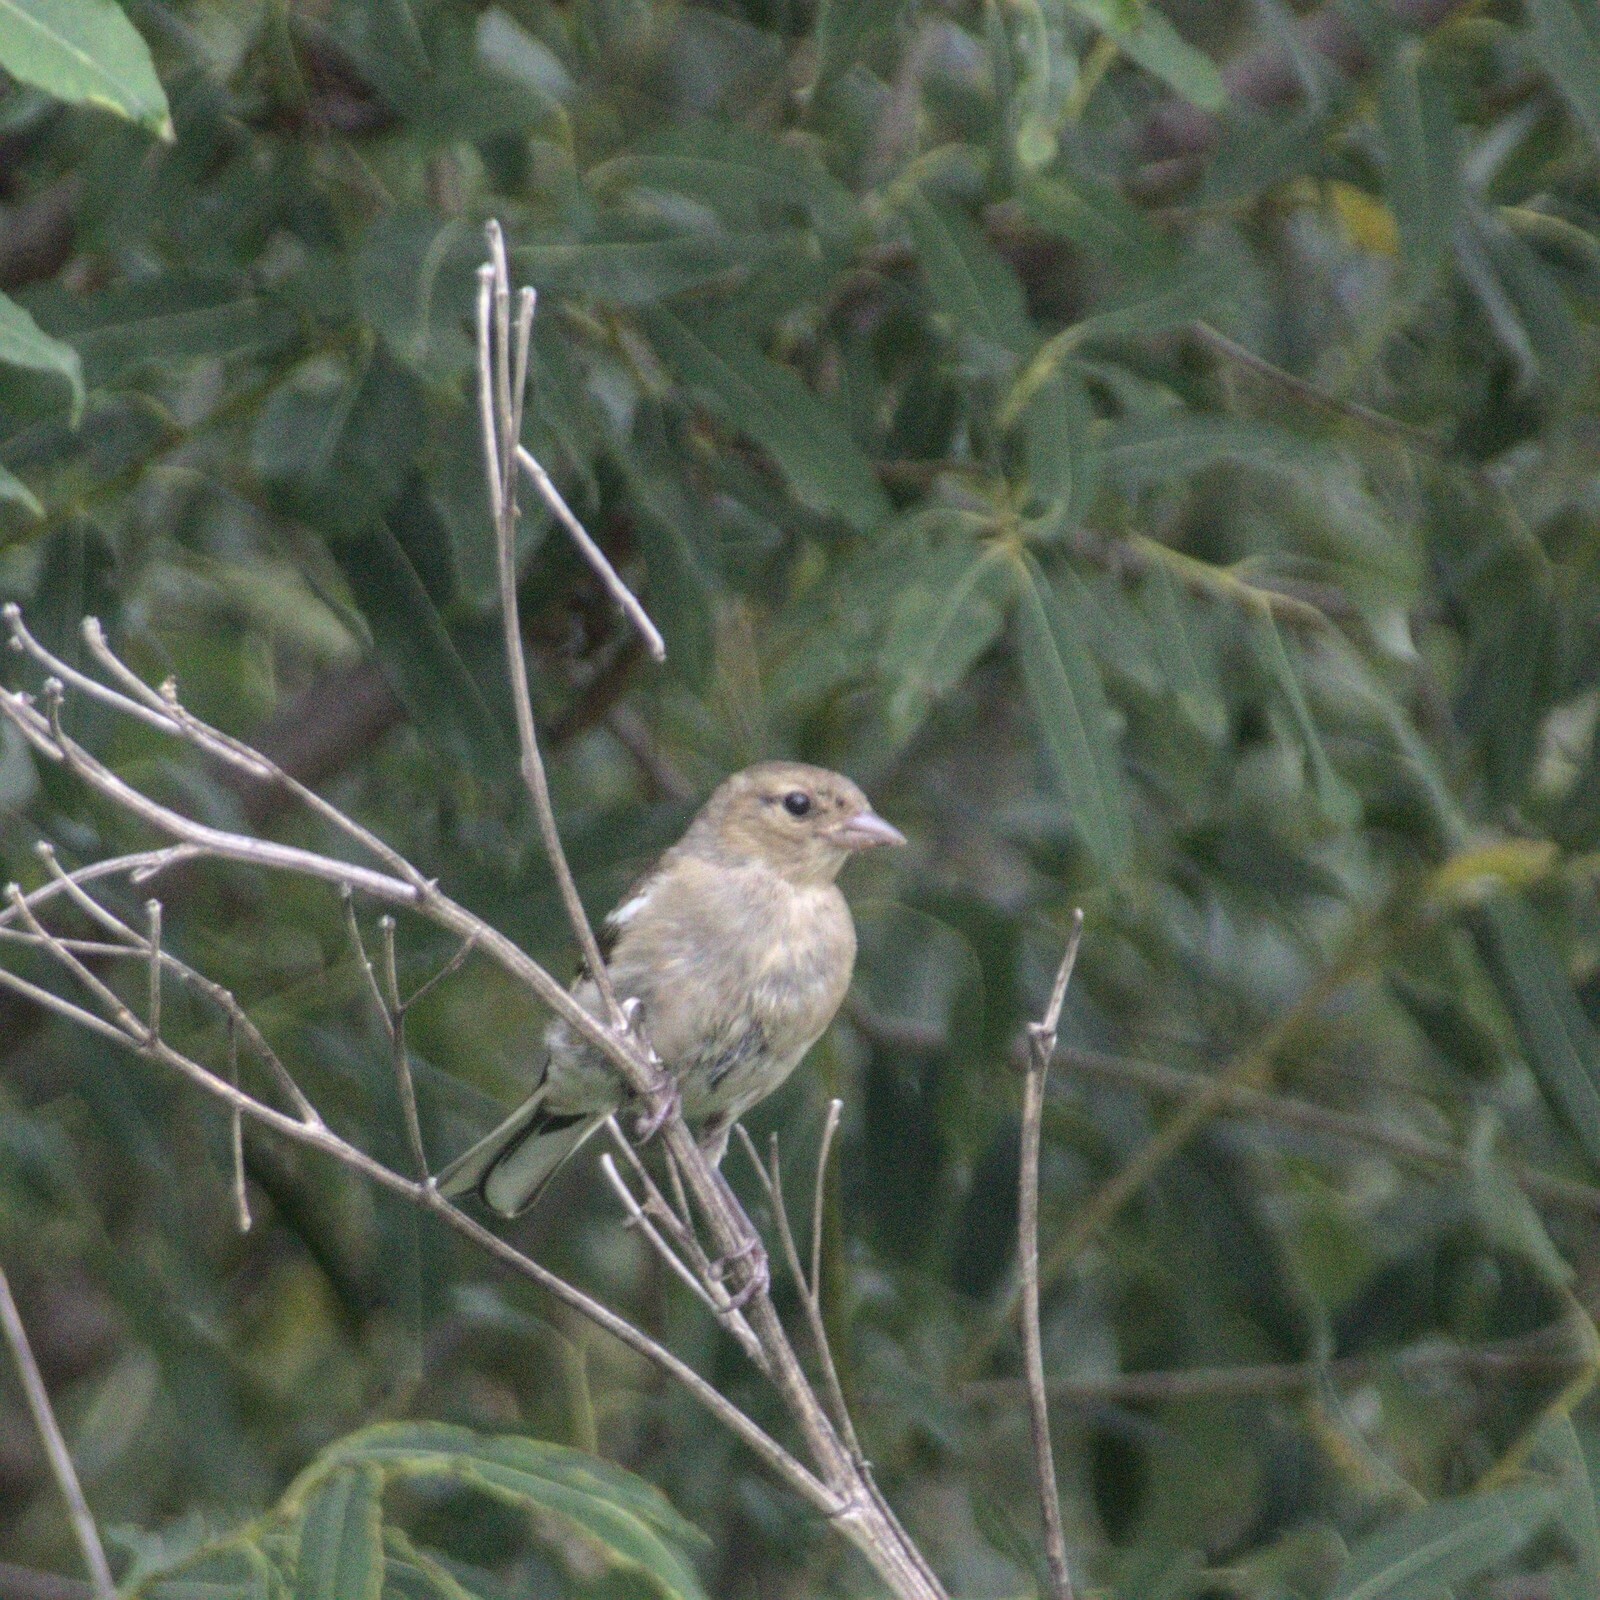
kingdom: Animalia
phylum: Chordata
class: Aves
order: Passeriformes
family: Fringillidae
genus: Fringilla
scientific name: Fringilla coelebs
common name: Common chaffinch
